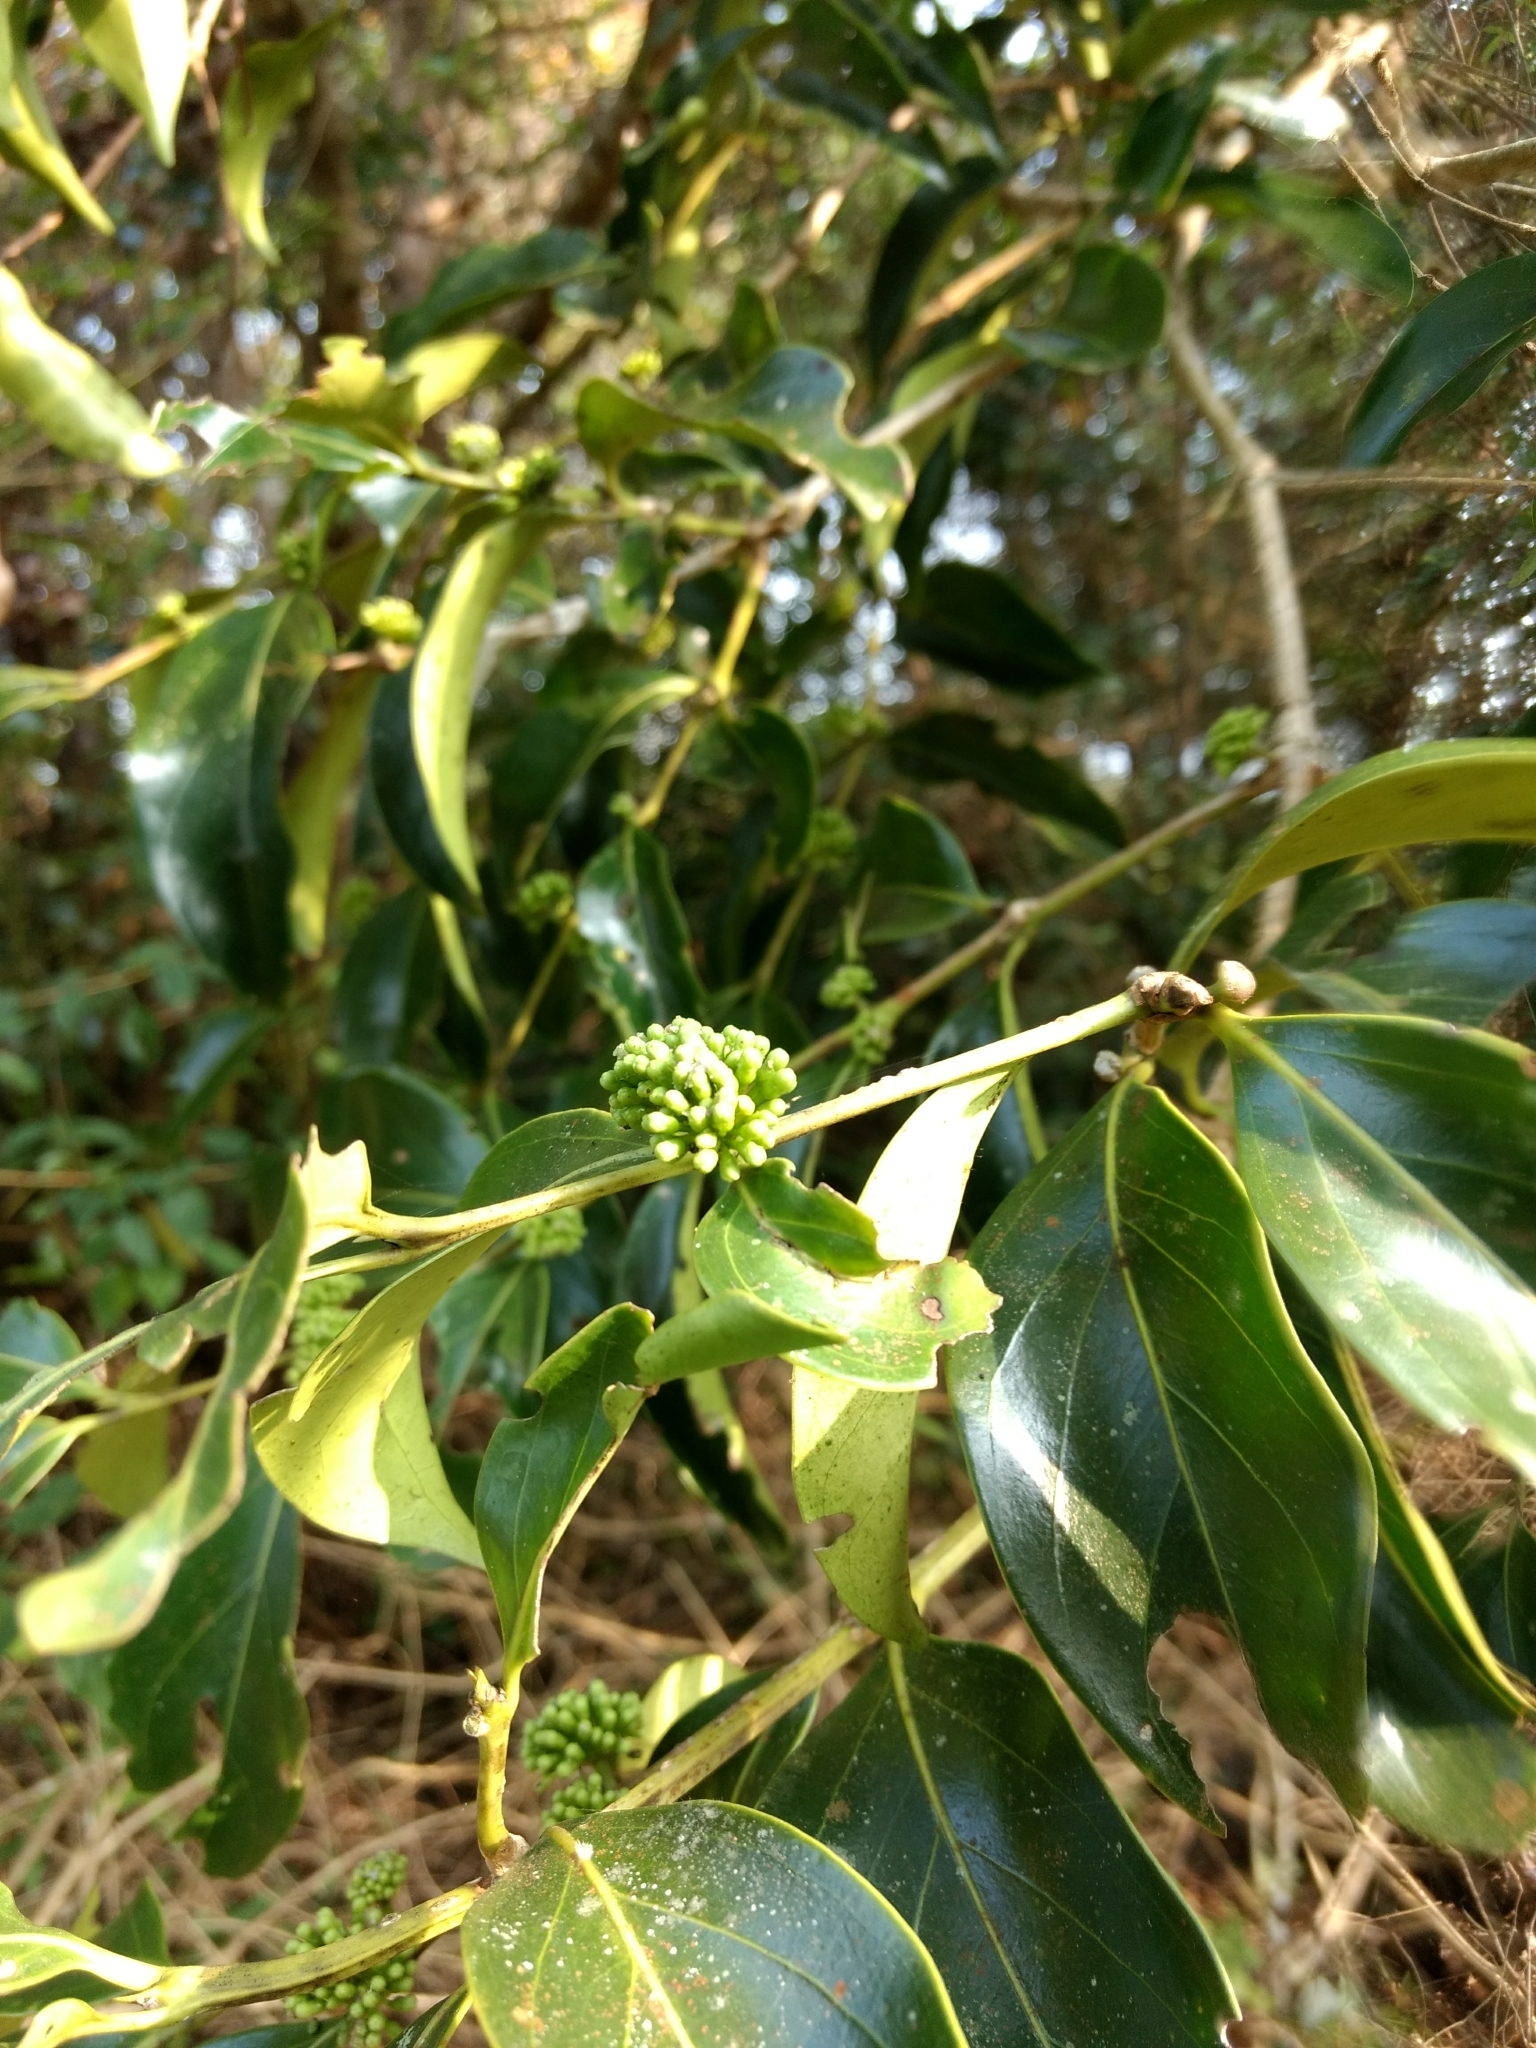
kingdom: Plantae
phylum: Tracheophyta
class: Magnoliopsida
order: Gentianales
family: Rubiaceae
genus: Psydrax
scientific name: Psydrax dicoccos
